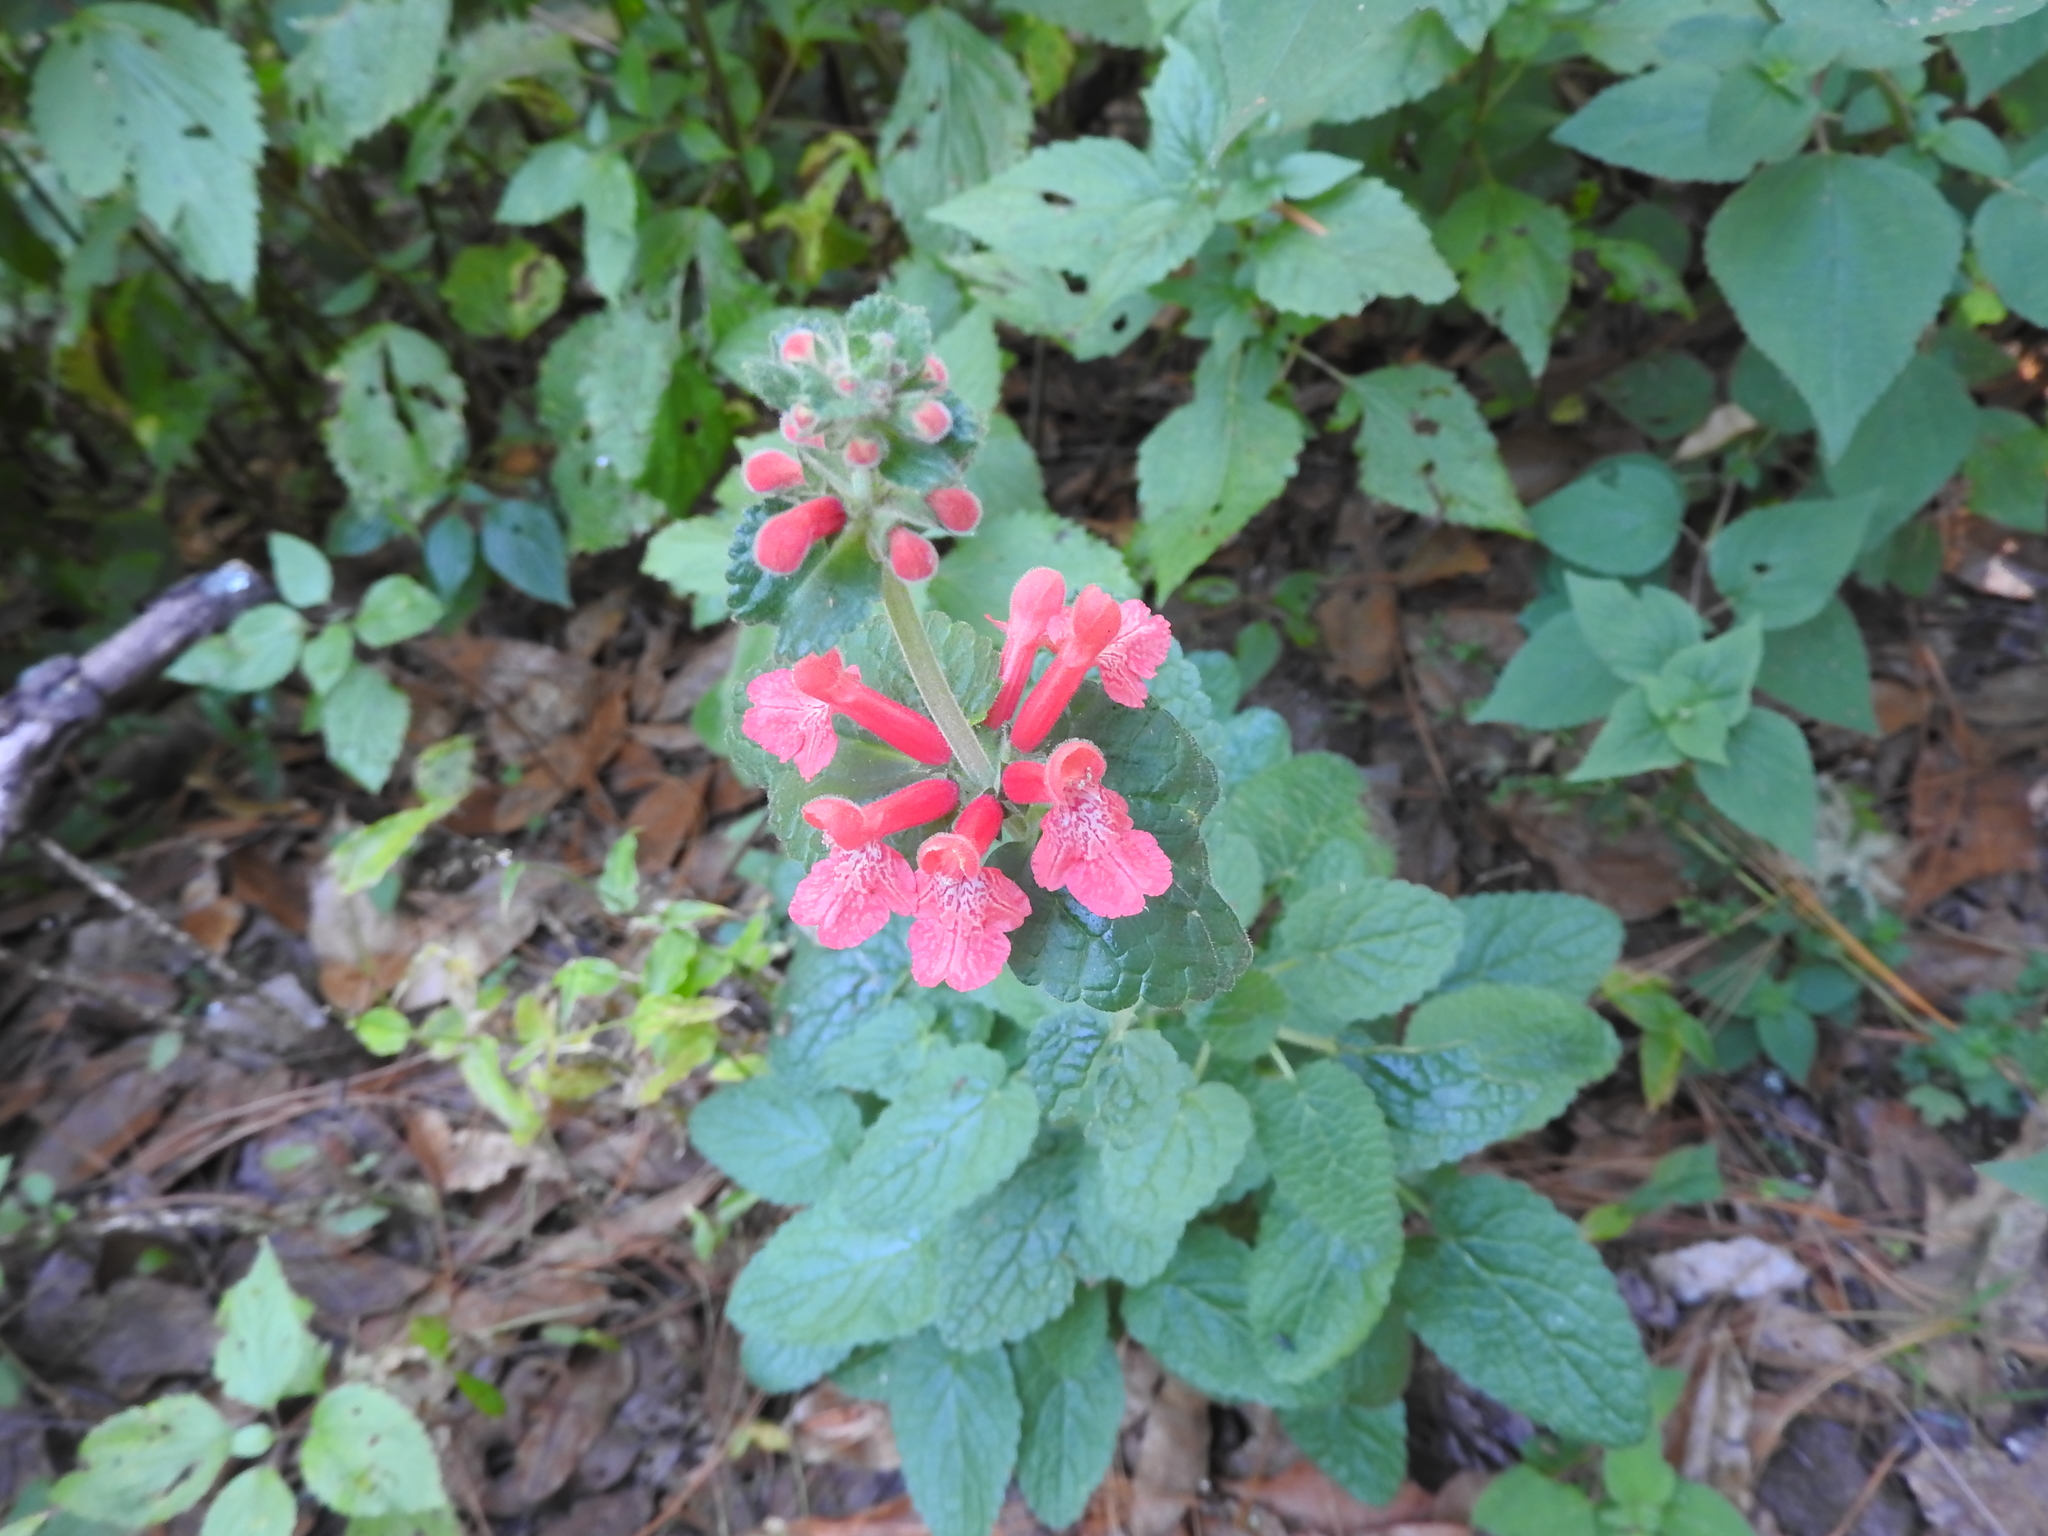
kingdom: Plantae
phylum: Tracheophyta
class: Magnoliopsida
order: Lamiales
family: Lamiaceae
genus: Stachys
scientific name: Stachys coccinea
